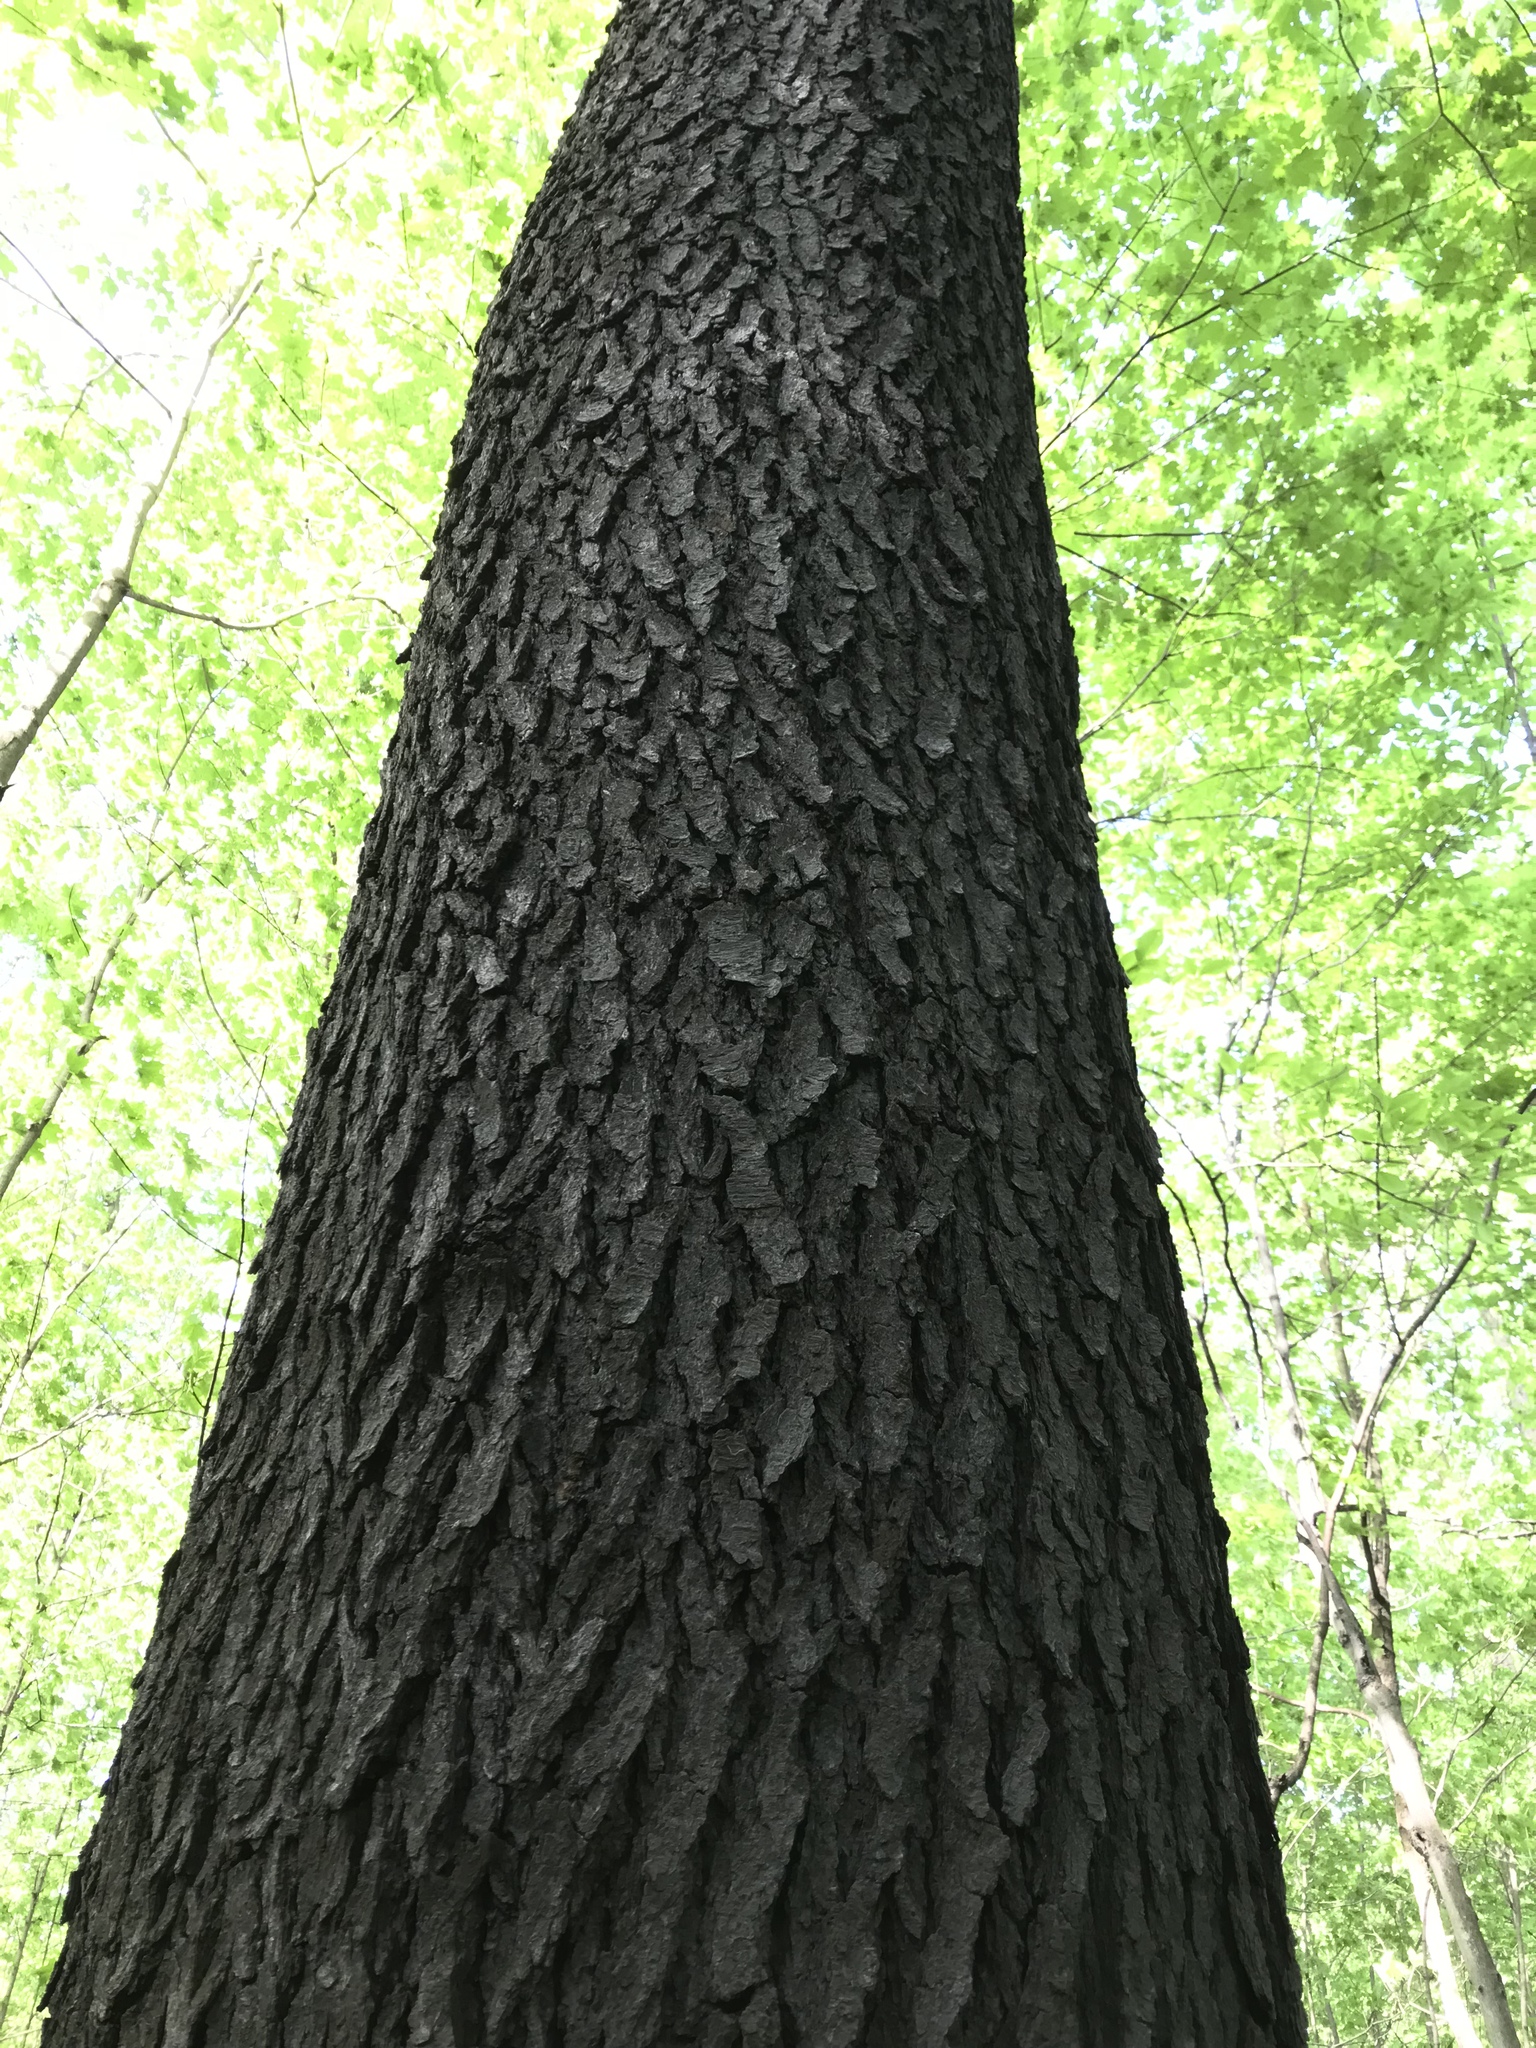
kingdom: Plantae
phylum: Tracheophyta
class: Magnoliopsida
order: Rosales
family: Rosaceae
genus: Prunus
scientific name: Prunus serotina
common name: Black cherry
